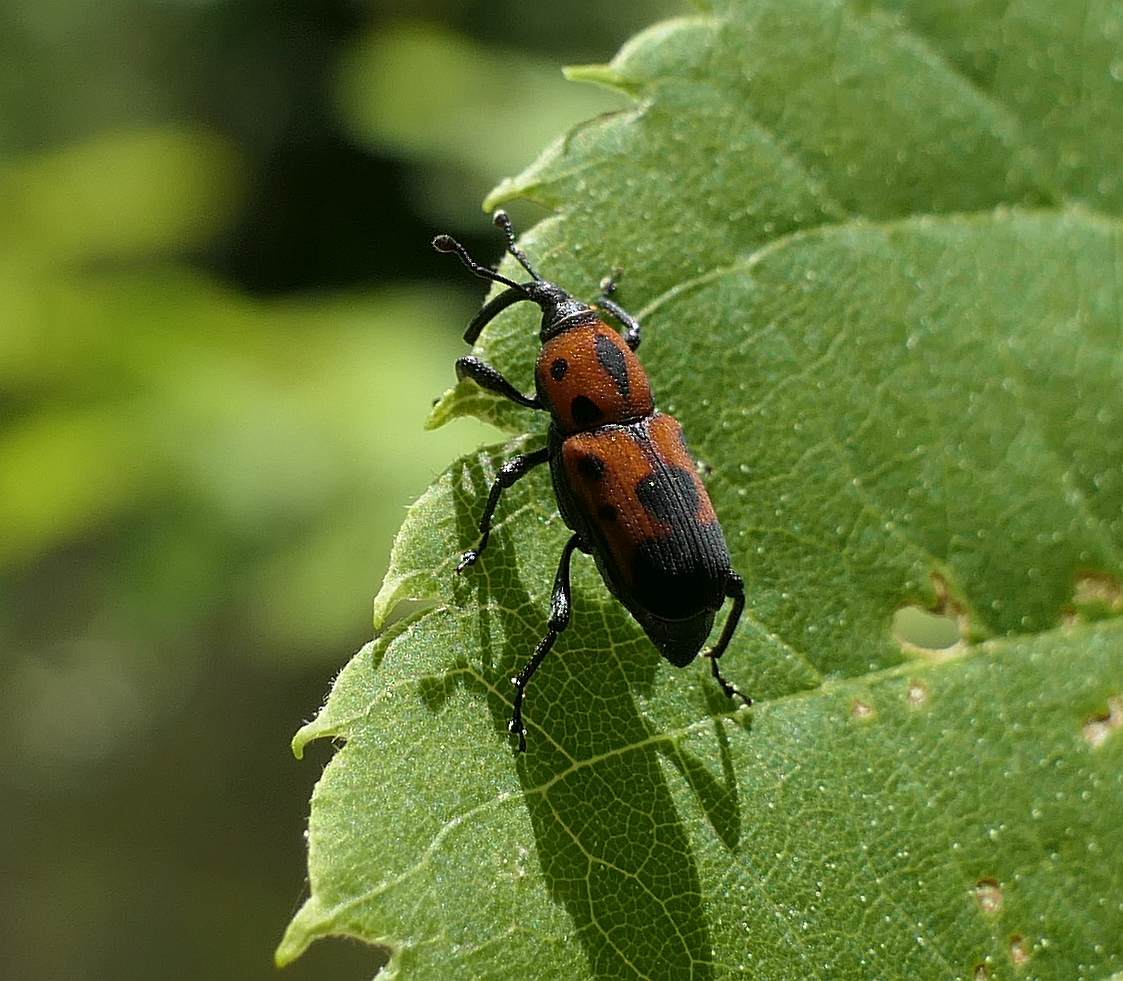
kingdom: Animalia
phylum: Arthropoda
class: Insecta
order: Coleoptera
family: Dryophthoridae
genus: Rhodobaenus
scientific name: Rhodobaenus quinquepunctatus
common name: Cocklebur weevil
